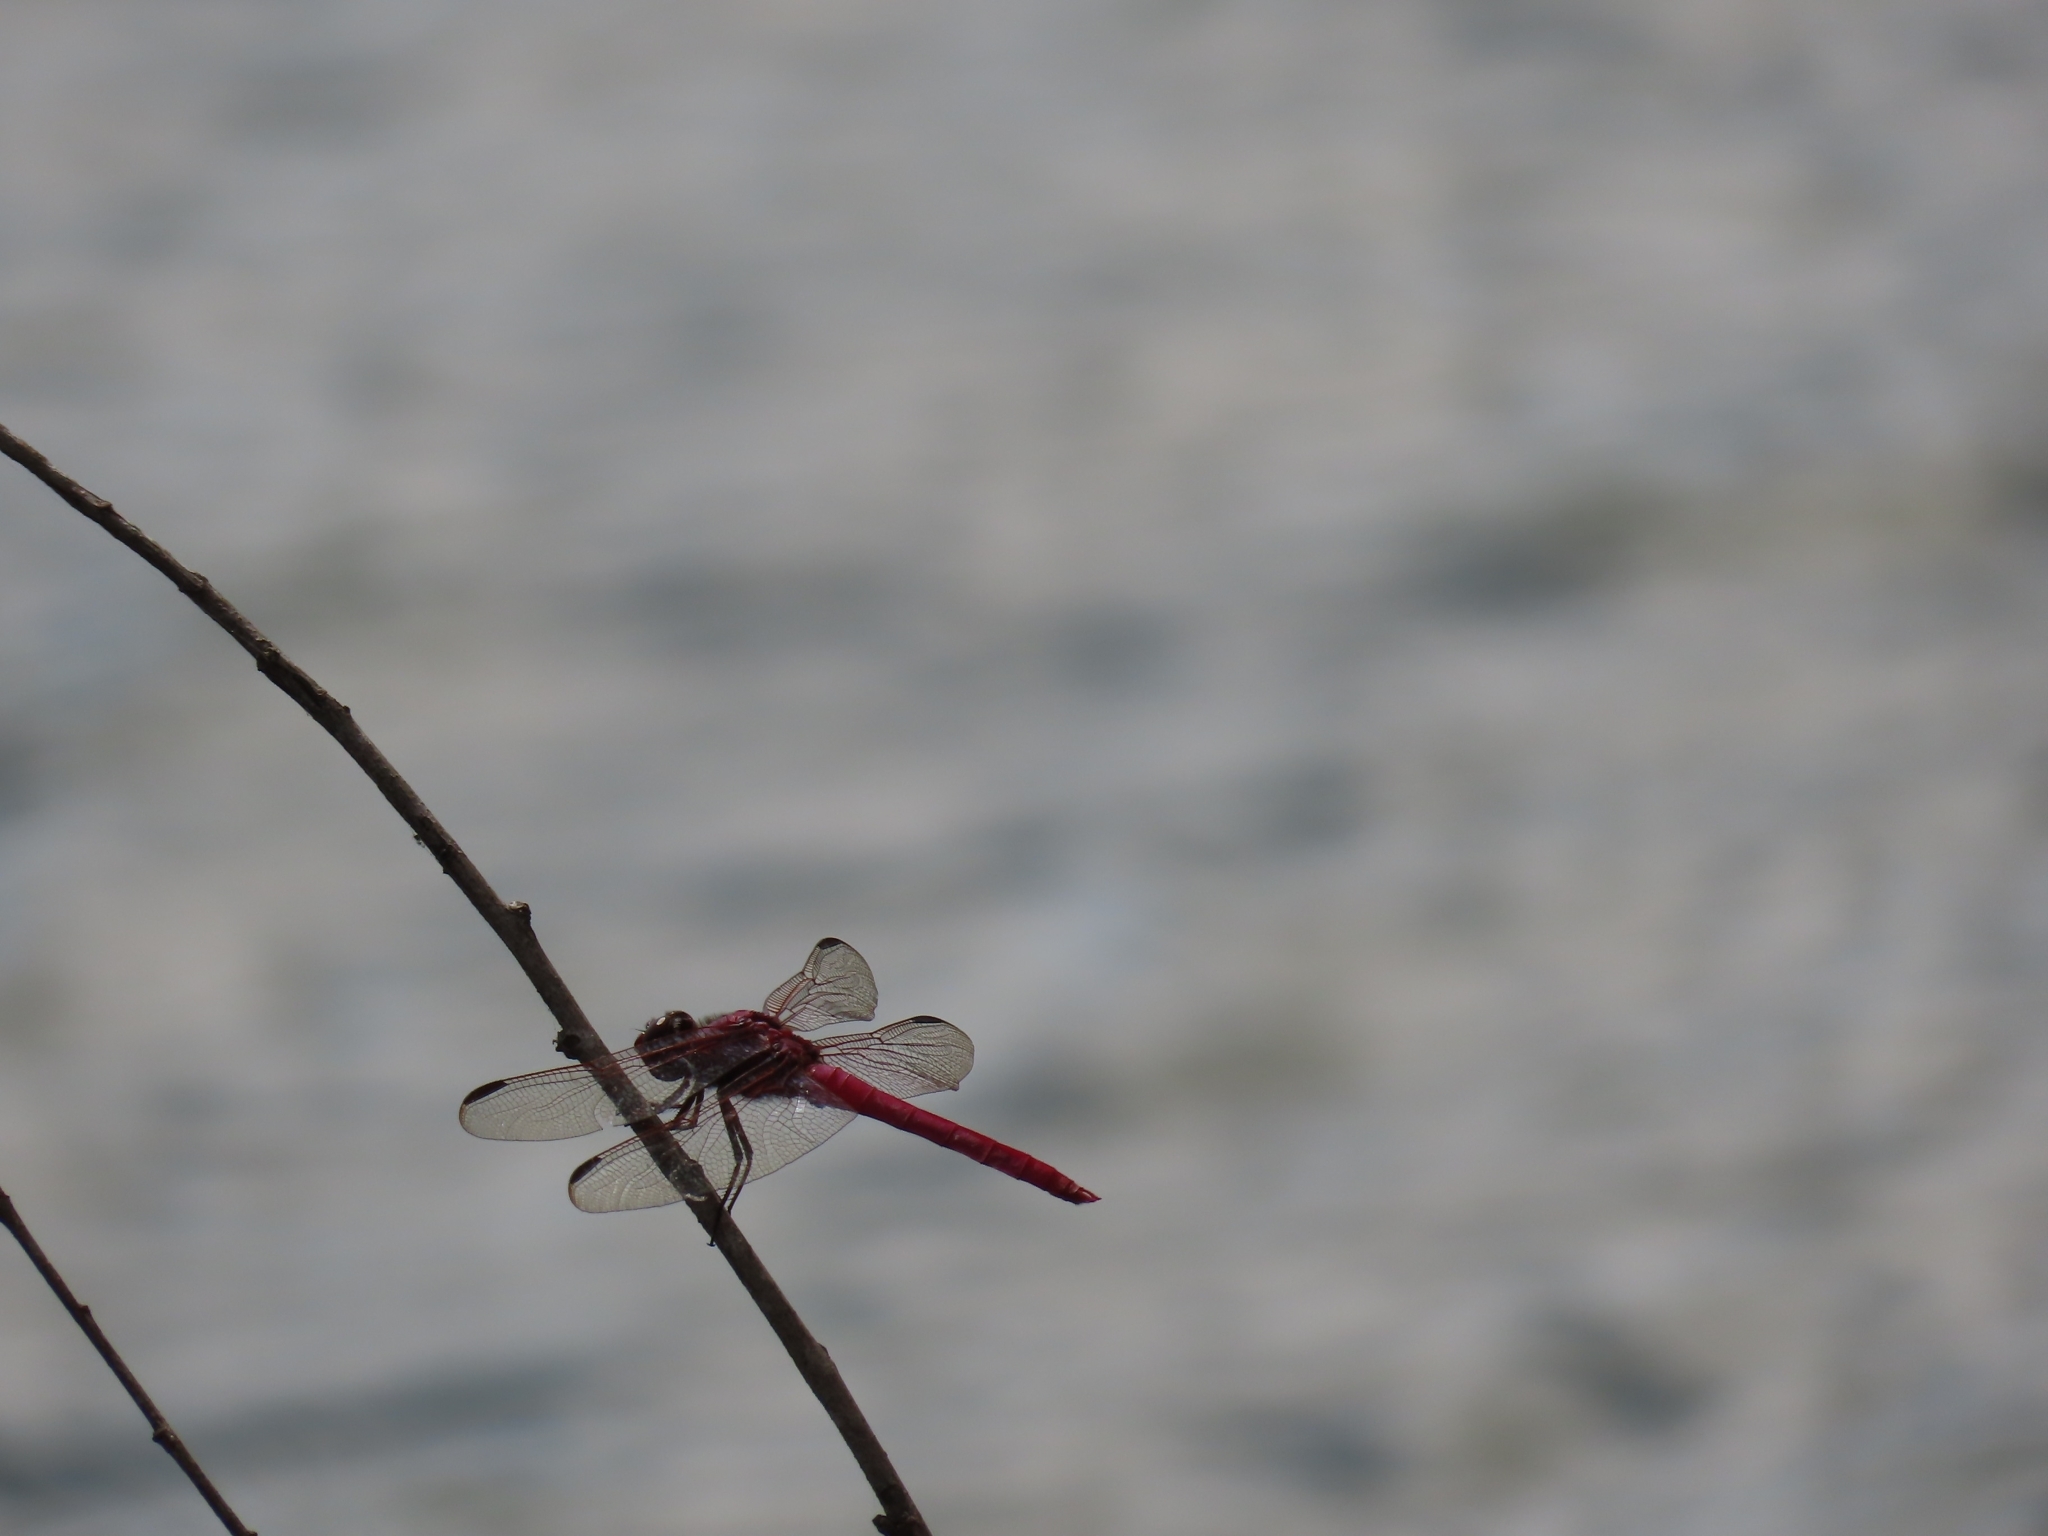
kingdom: Animalia
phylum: Arthropoda
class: Insecta
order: Odonata
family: Libellulidae
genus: Orthemis
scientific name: Orthemis ferruginea
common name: Roseate skimmer
